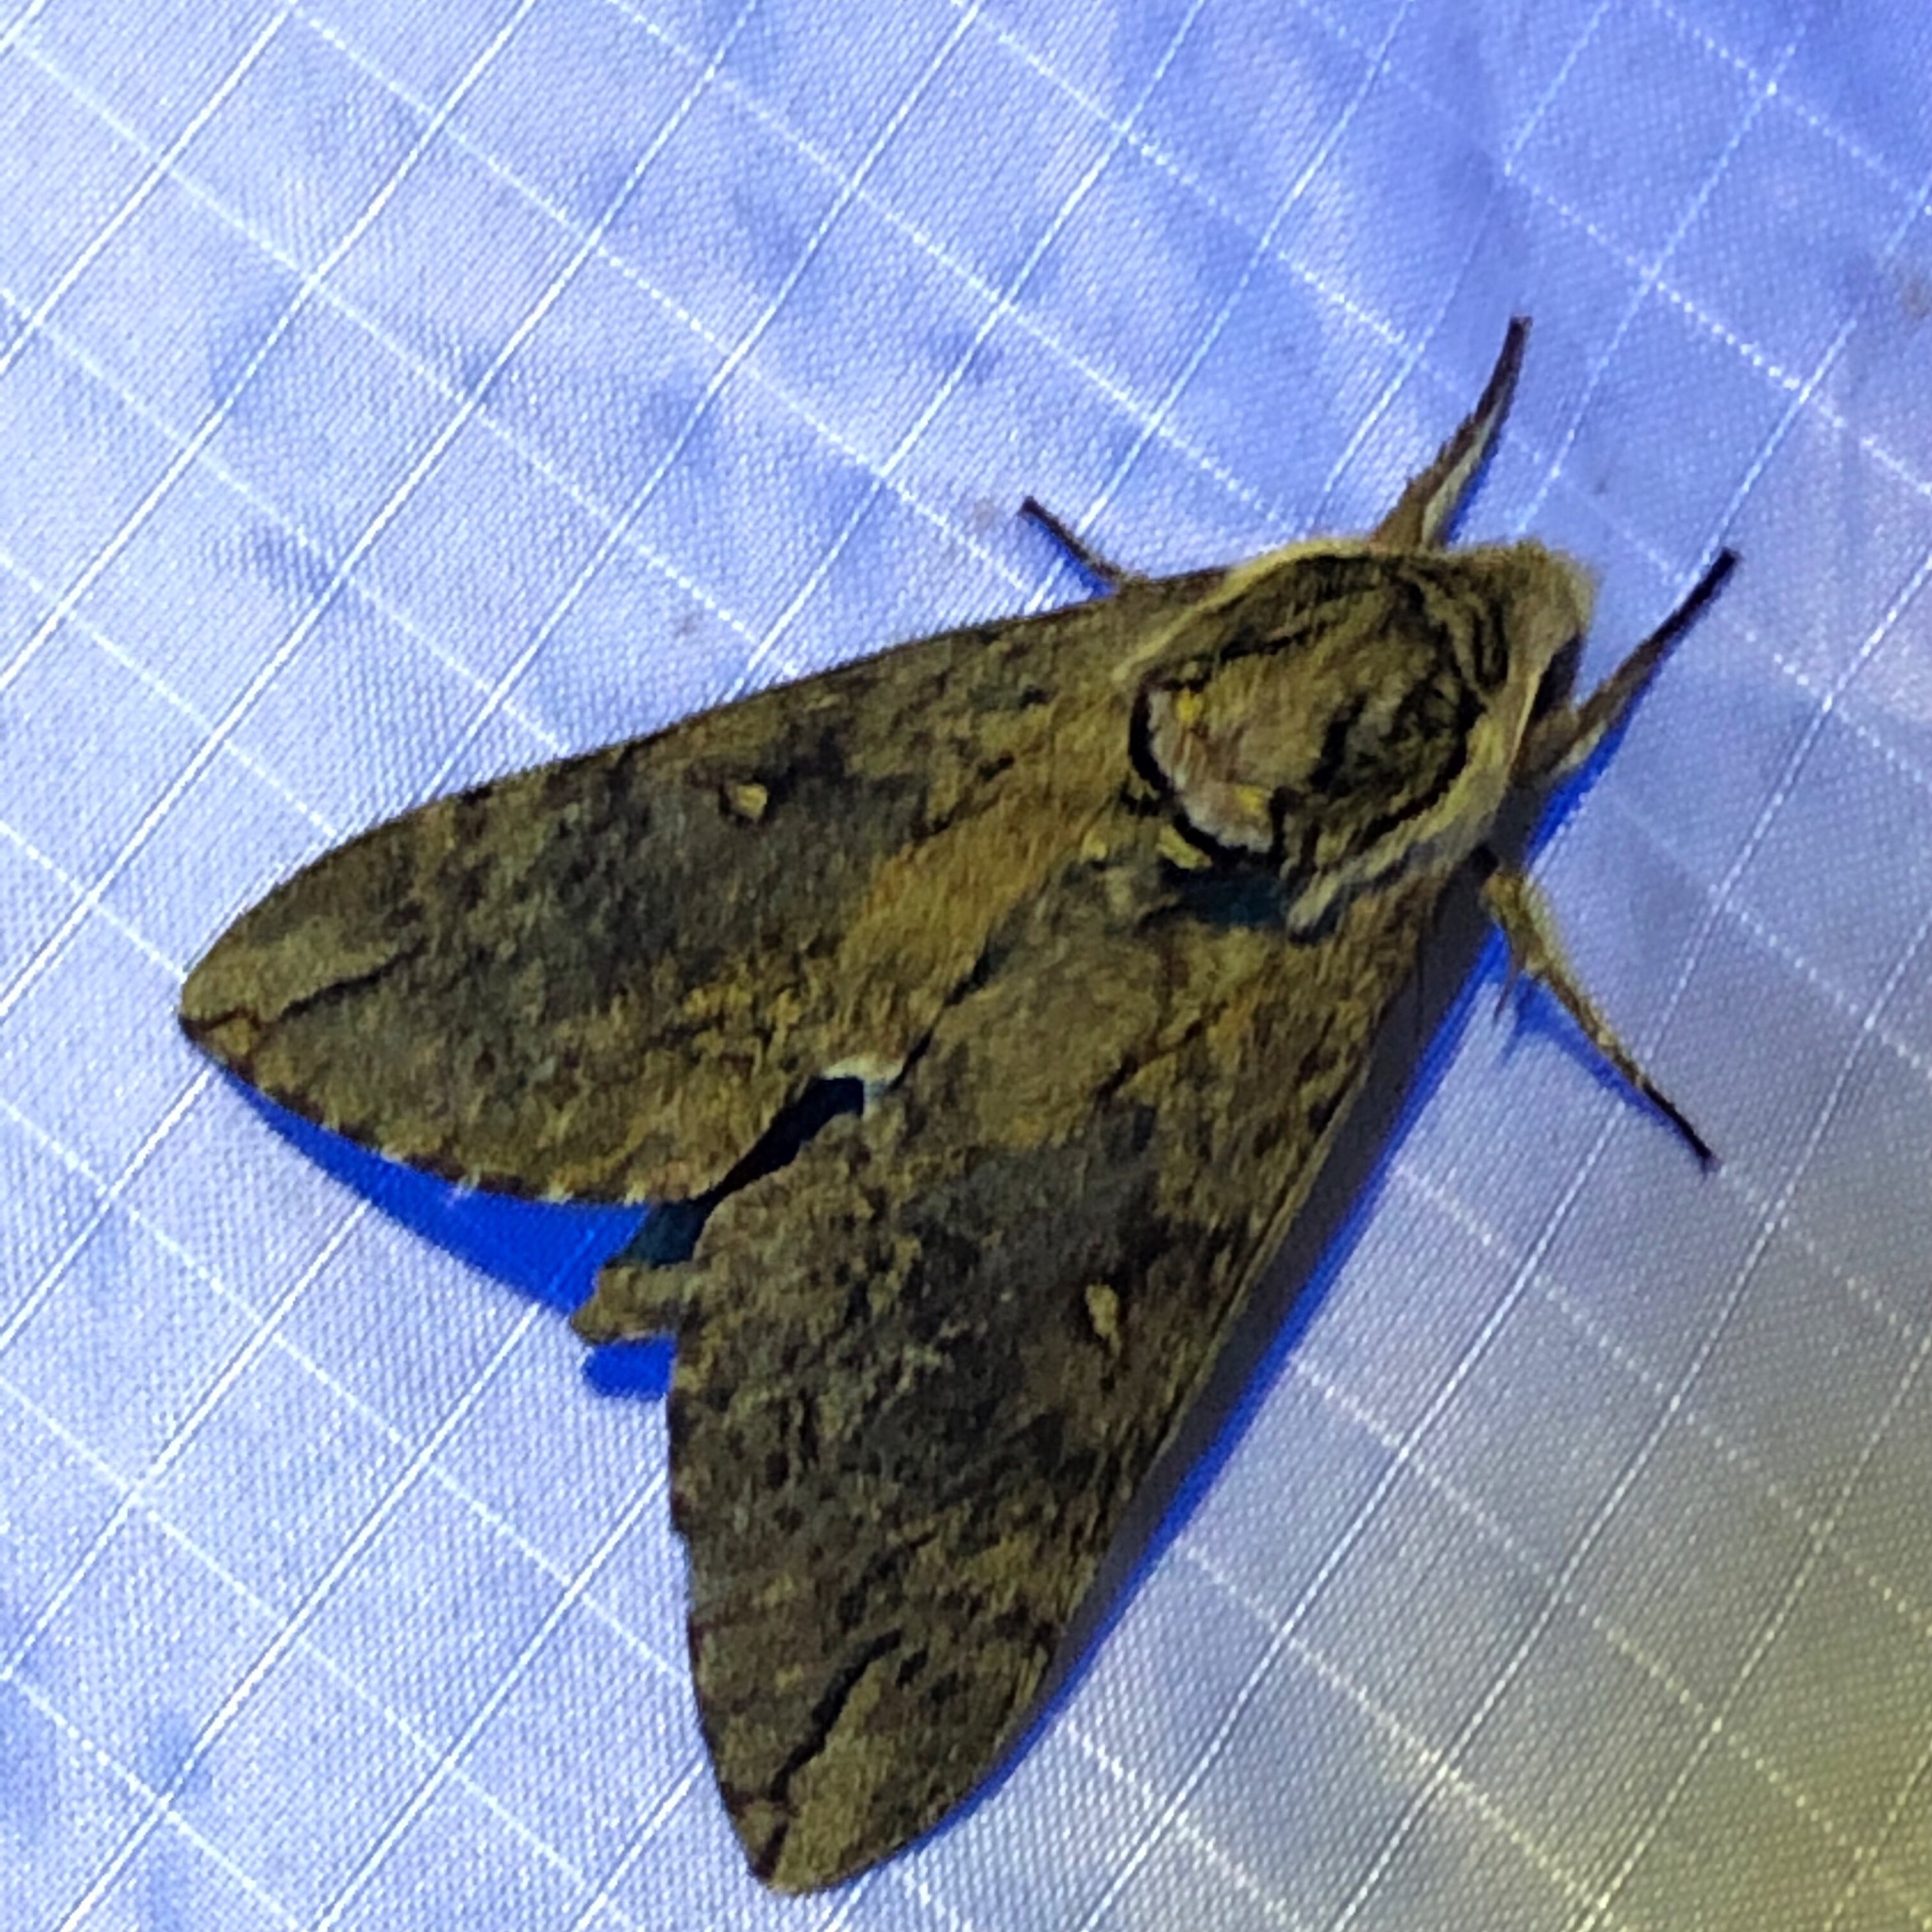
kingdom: Animalia
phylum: Arthropoda
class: Insecta
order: Lepidoptera
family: Sphingidae
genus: Ceratomia
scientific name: Ceratomia catalpae
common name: Catalpa hornworm
